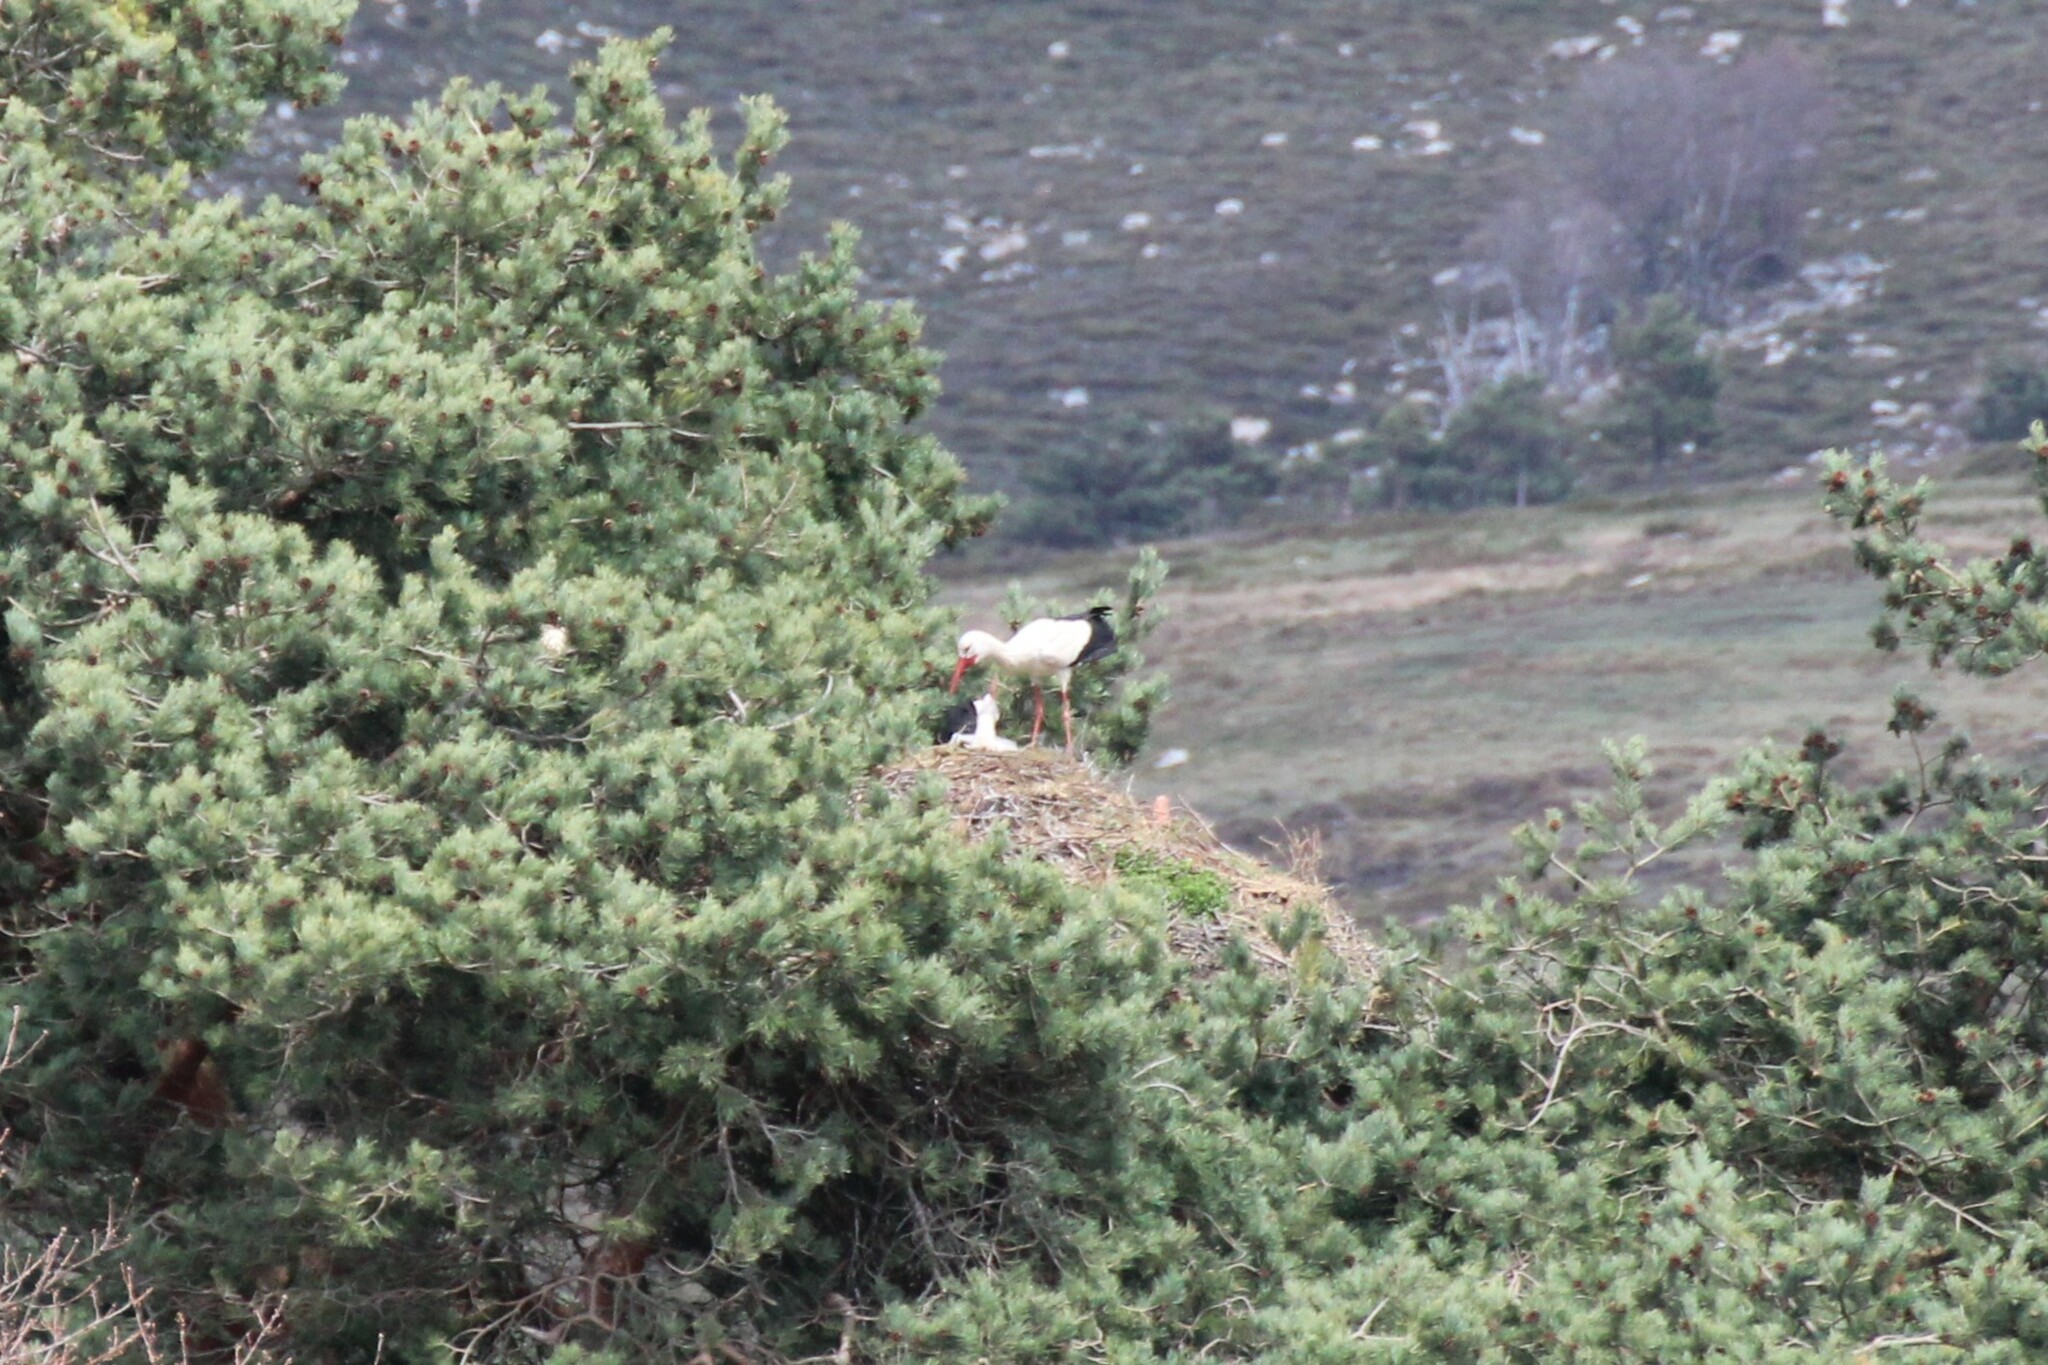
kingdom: Animalia
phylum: Chordata
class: Aves
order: Ciconiiformes
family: Ciconiidae
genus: Ciconia
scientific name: Ciconia ciconia
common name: White stork
